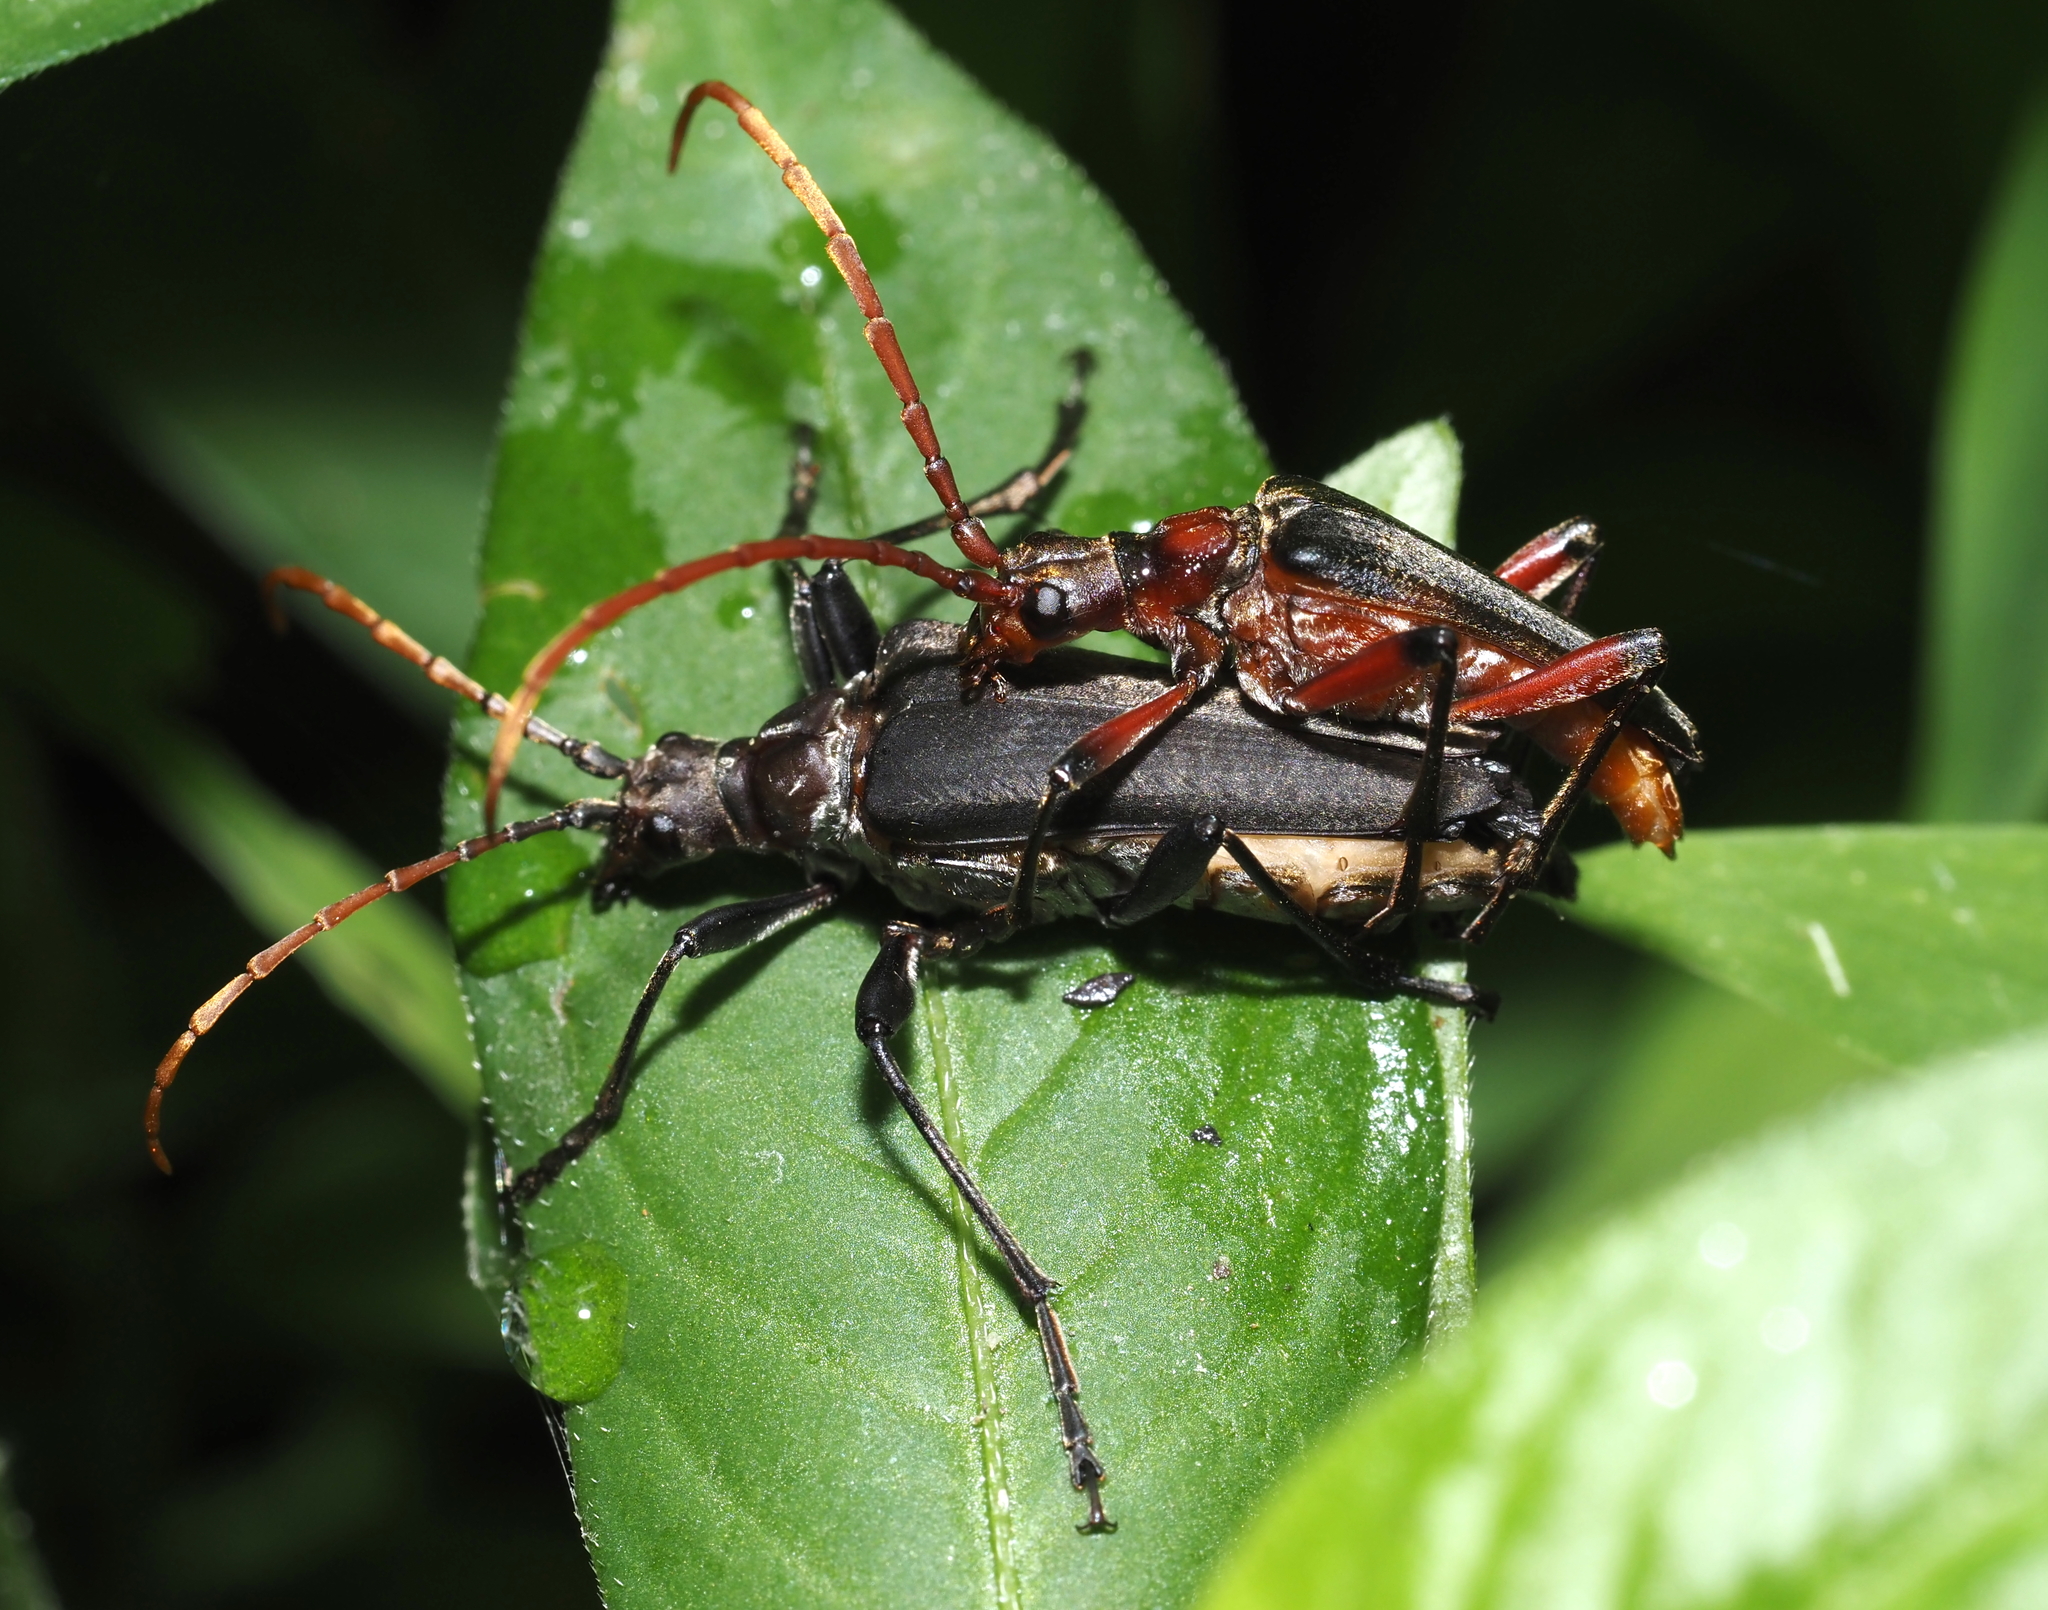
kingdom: Animalia
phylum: Arthropoda
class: Insecta
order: Coleoptera
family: Cerambycidae
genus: Stenocorus
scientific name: Stenocorus cylindricollis
